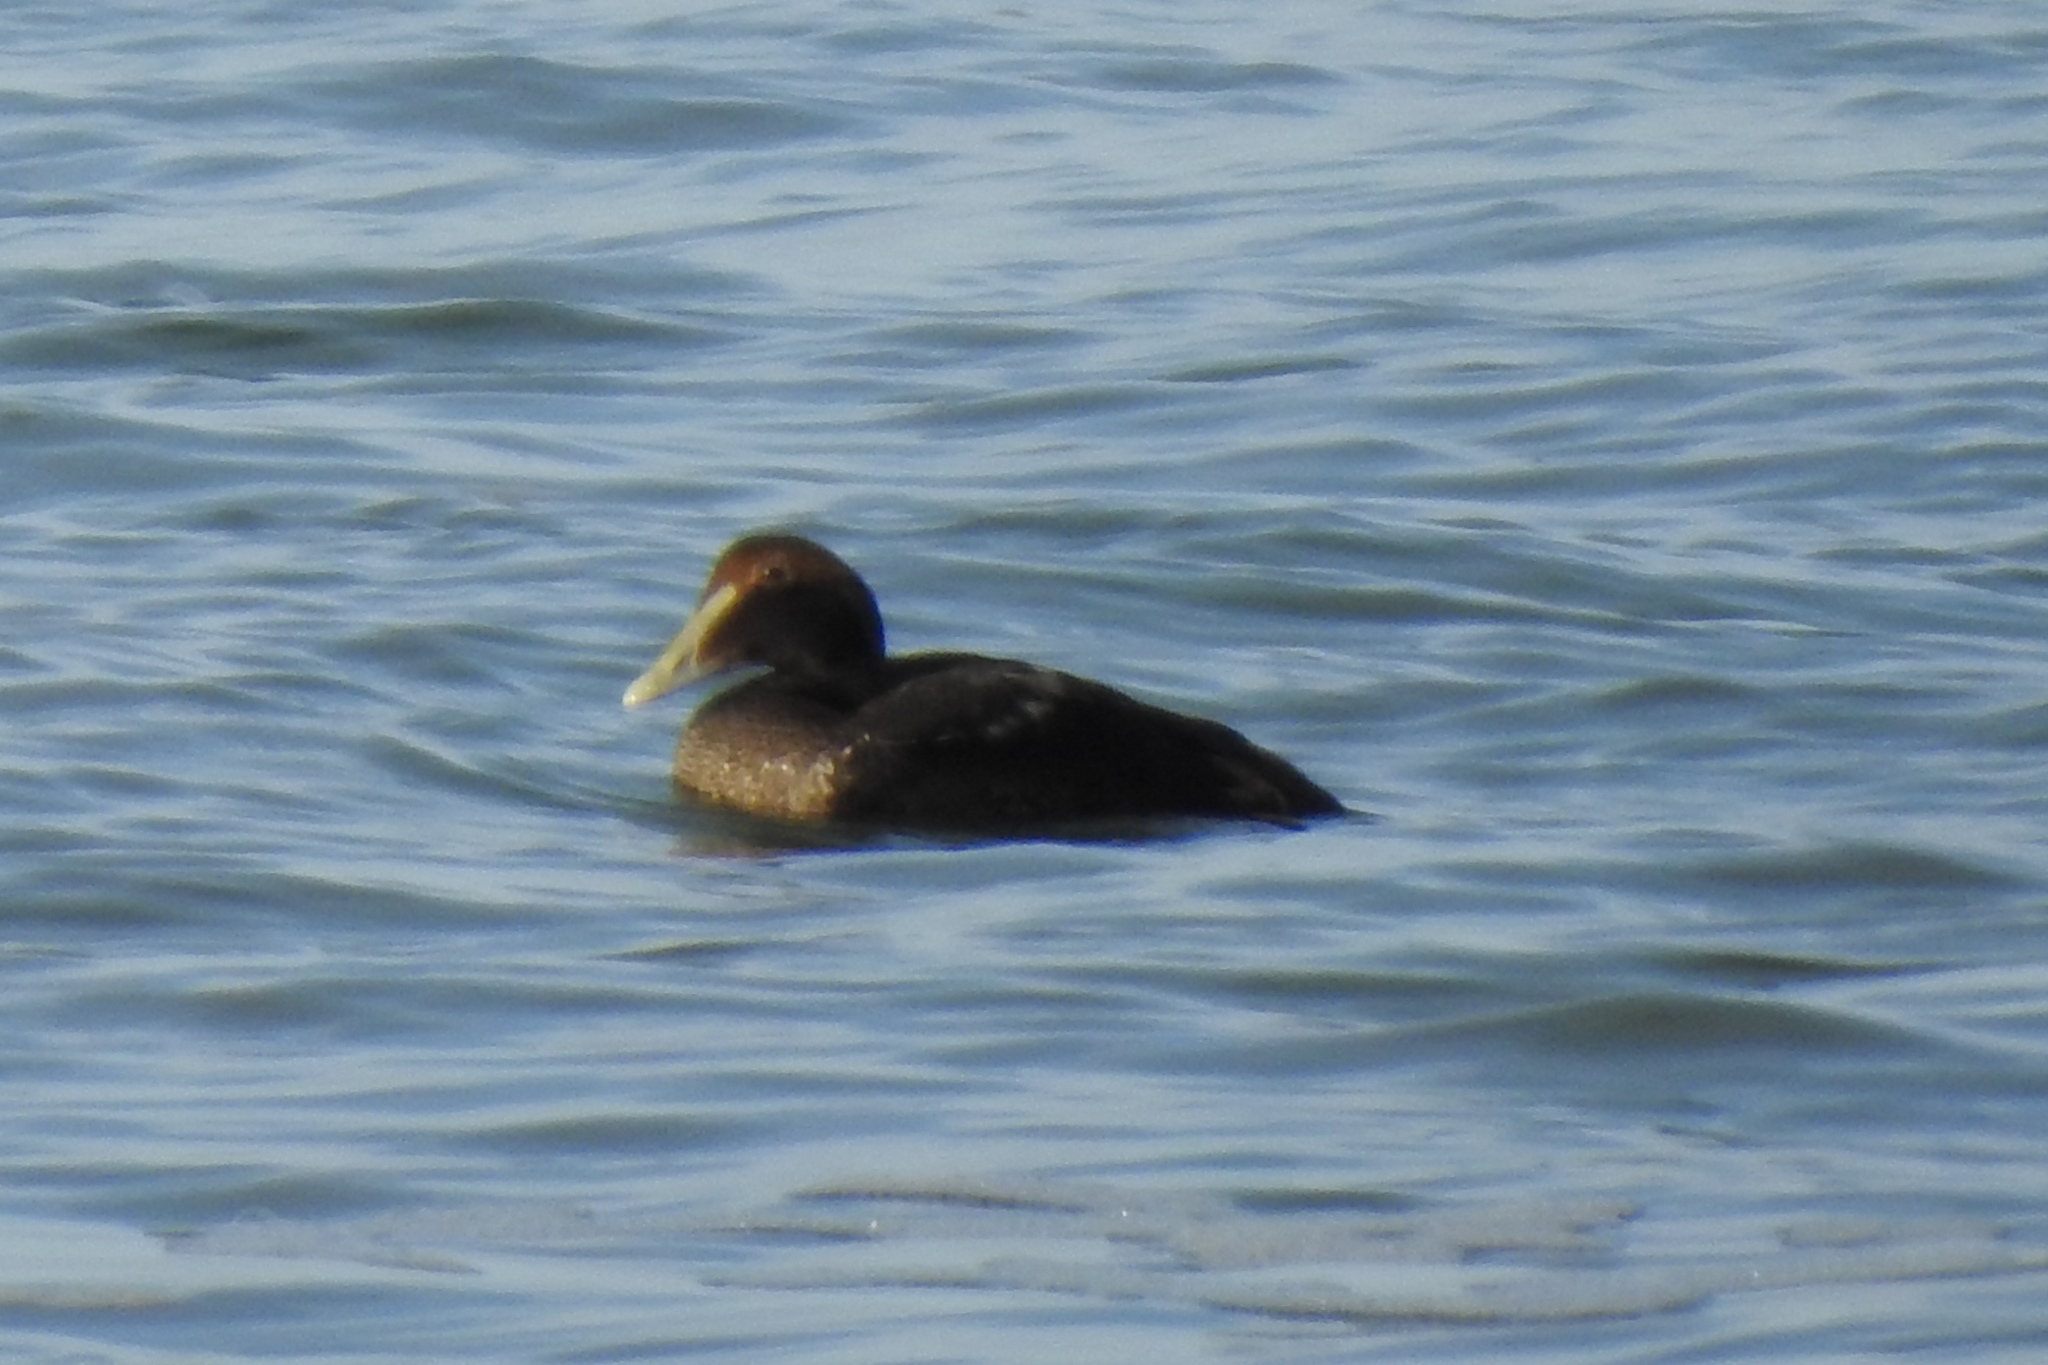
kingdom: Animalia
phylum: Chordata
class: Aves
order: Anseriformes
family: Anatidae
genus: Somateria
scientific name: Somateria mollissima
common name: Common eider
